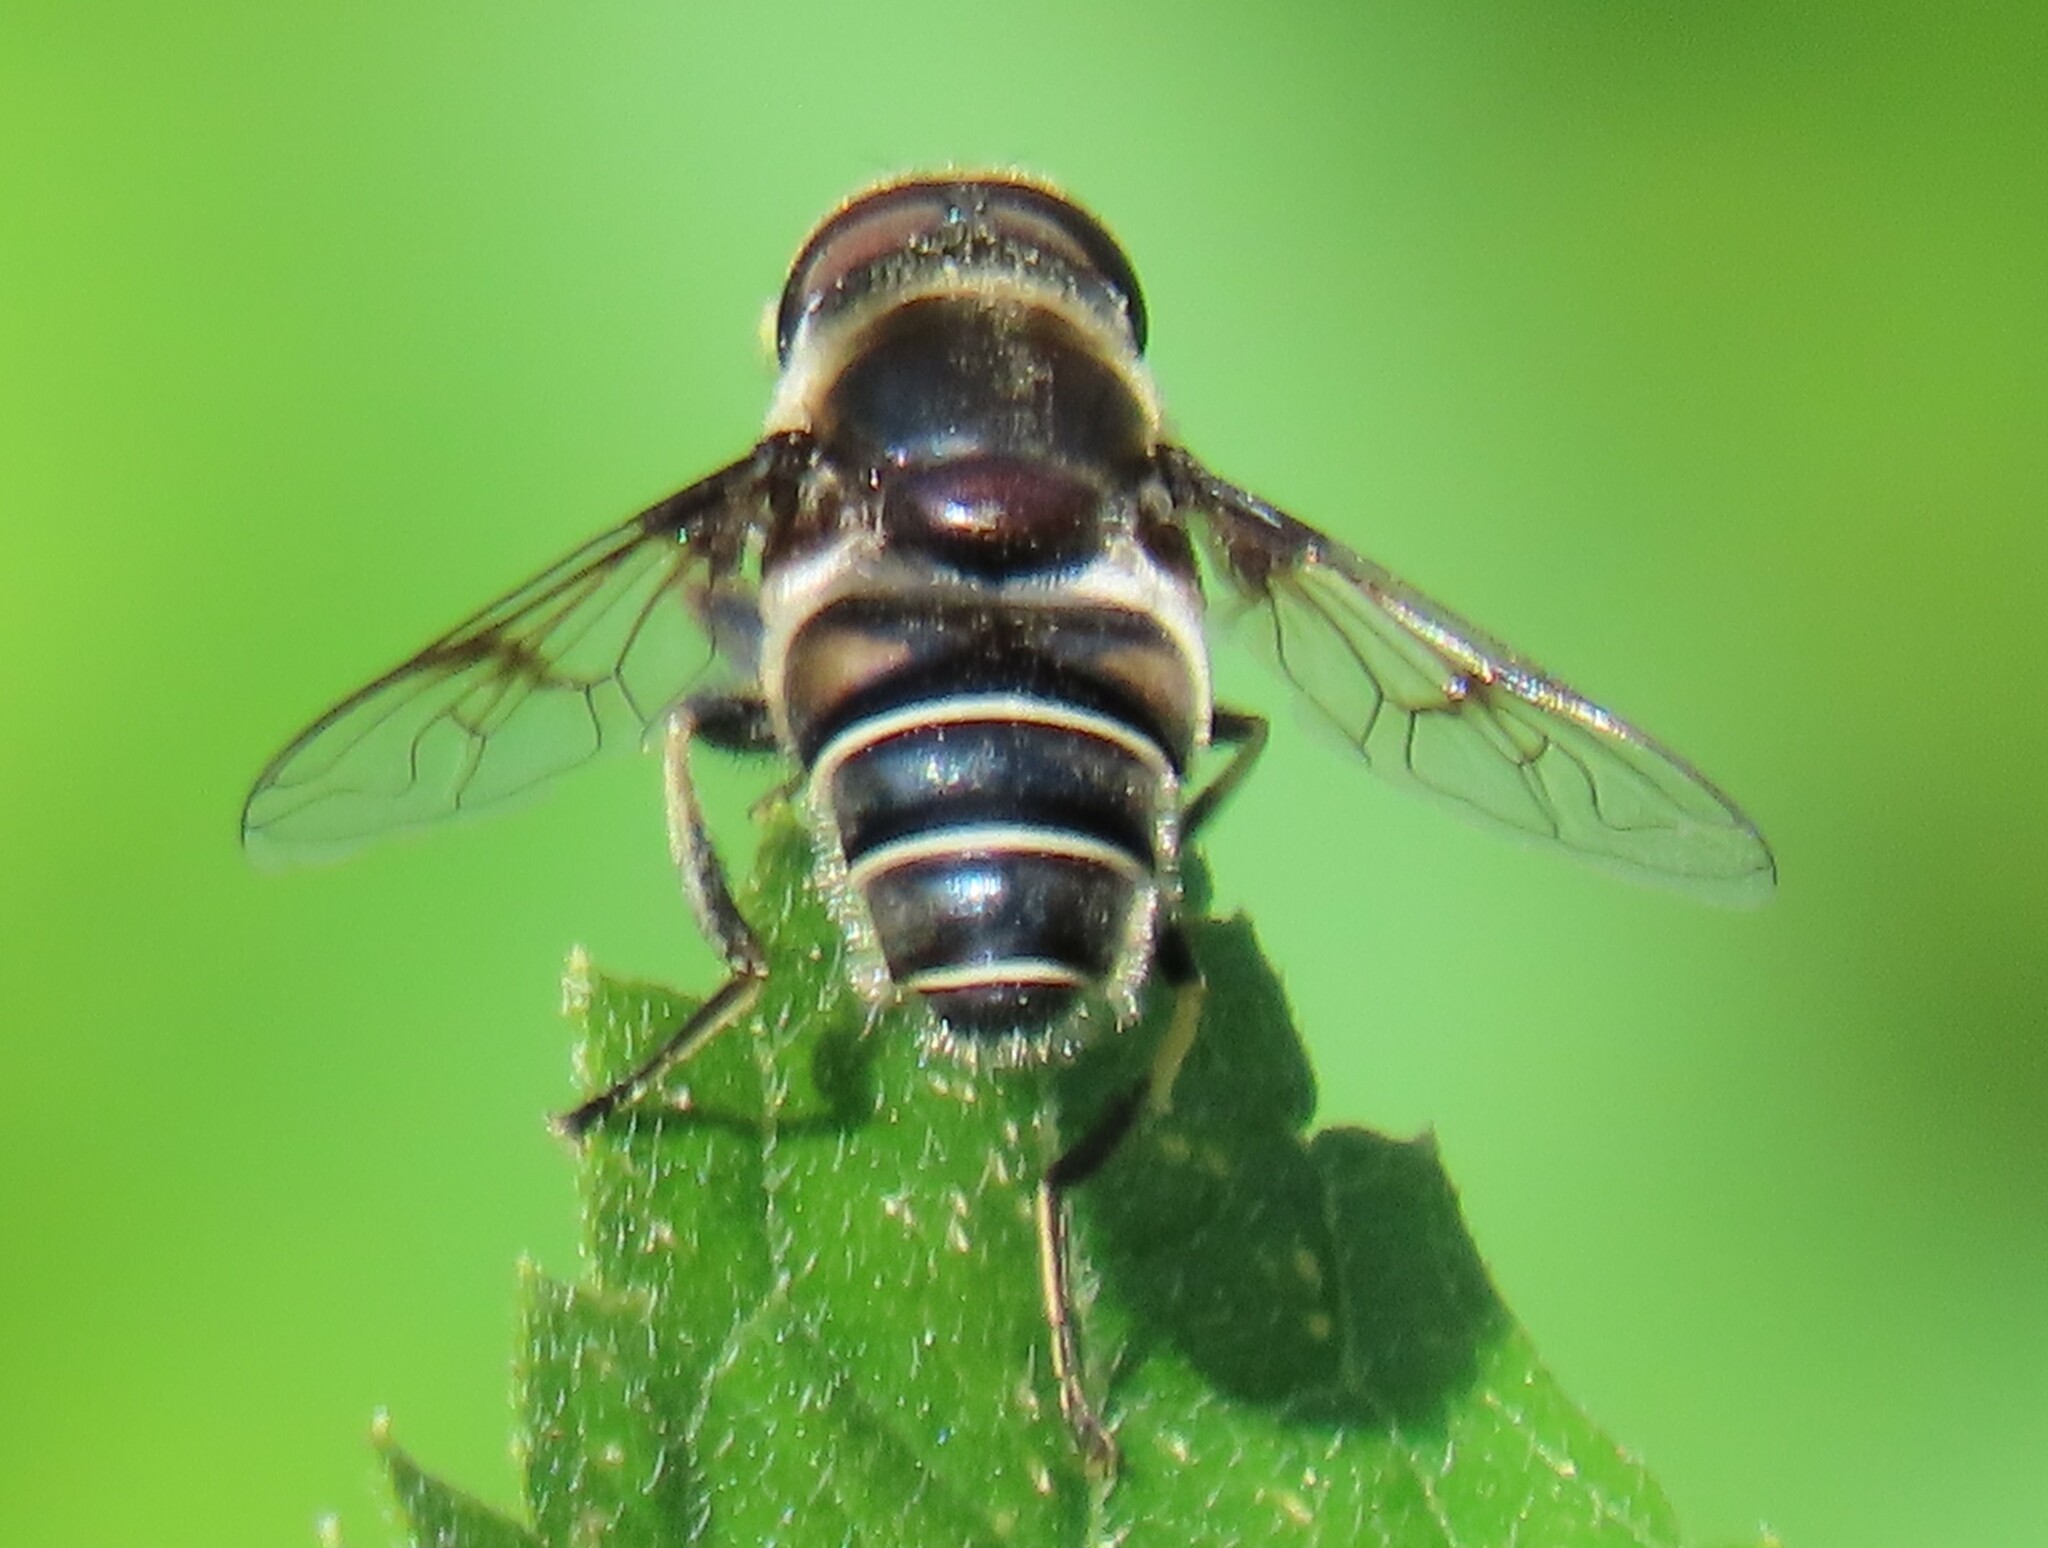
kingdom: Animalia
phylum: Arthropoda
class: Insecta
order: Diptera
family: Syrphidae
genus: Eristalis
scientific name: Eristalis saxorum
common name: Blue-polished drone fly
